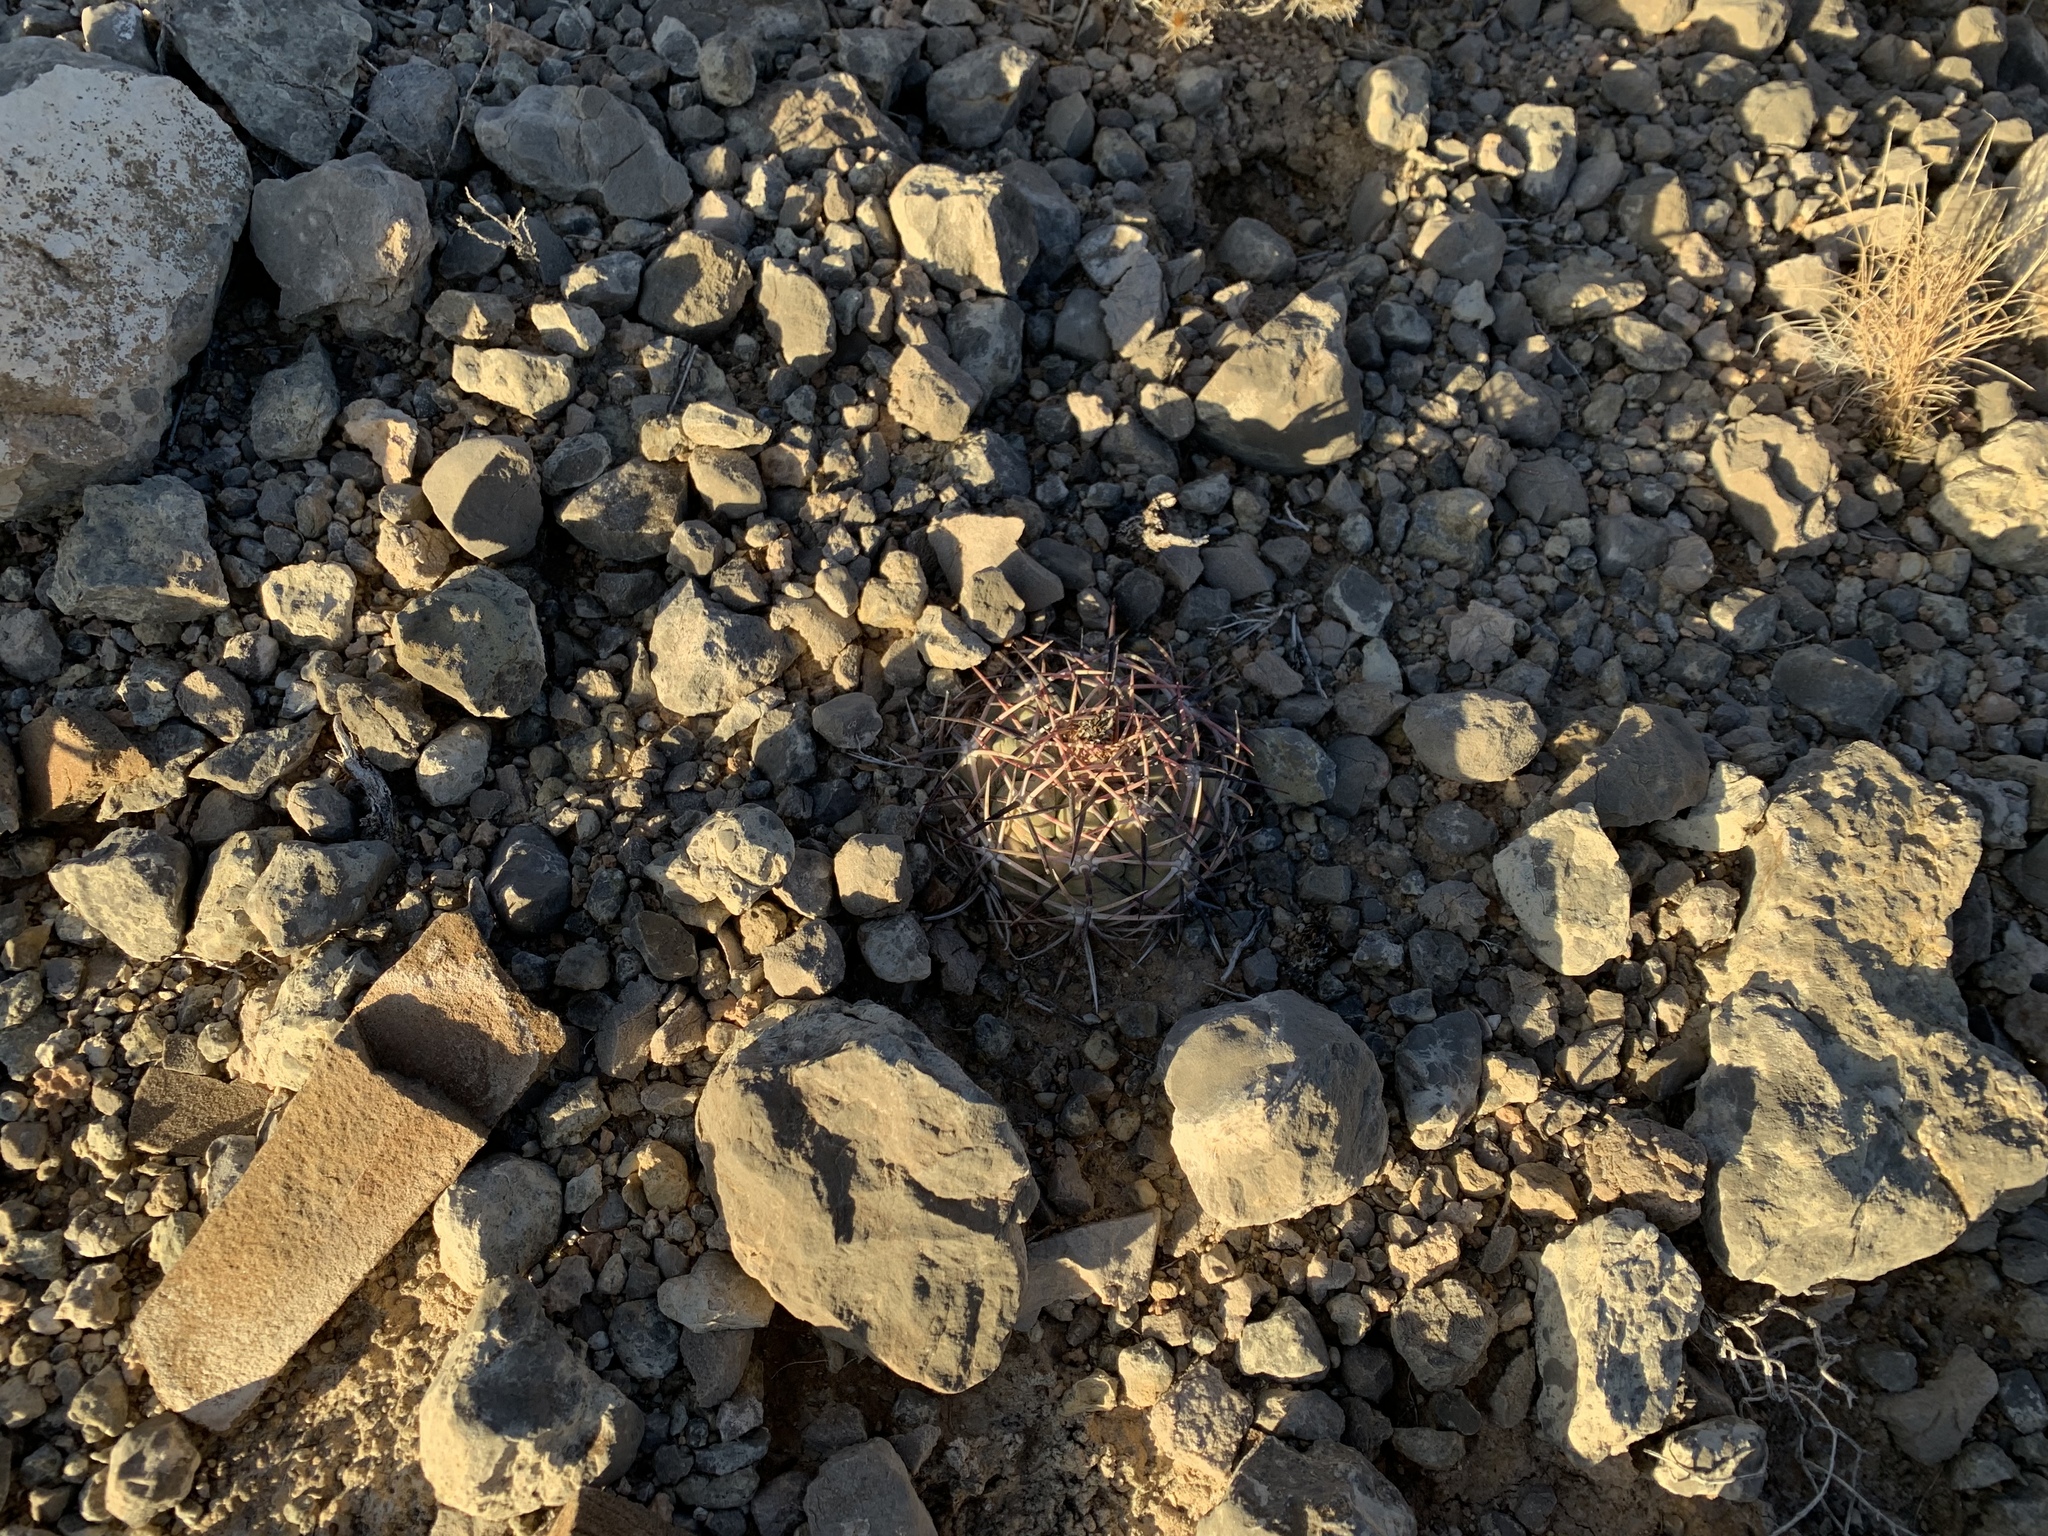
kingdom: Plantae
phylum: Tracheophyta
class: Magnoliopsida
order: Caryophyllales
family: Cactaceae
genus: Echinocactus
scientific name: Echinocactus horizonthalonius
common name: Devilshead
